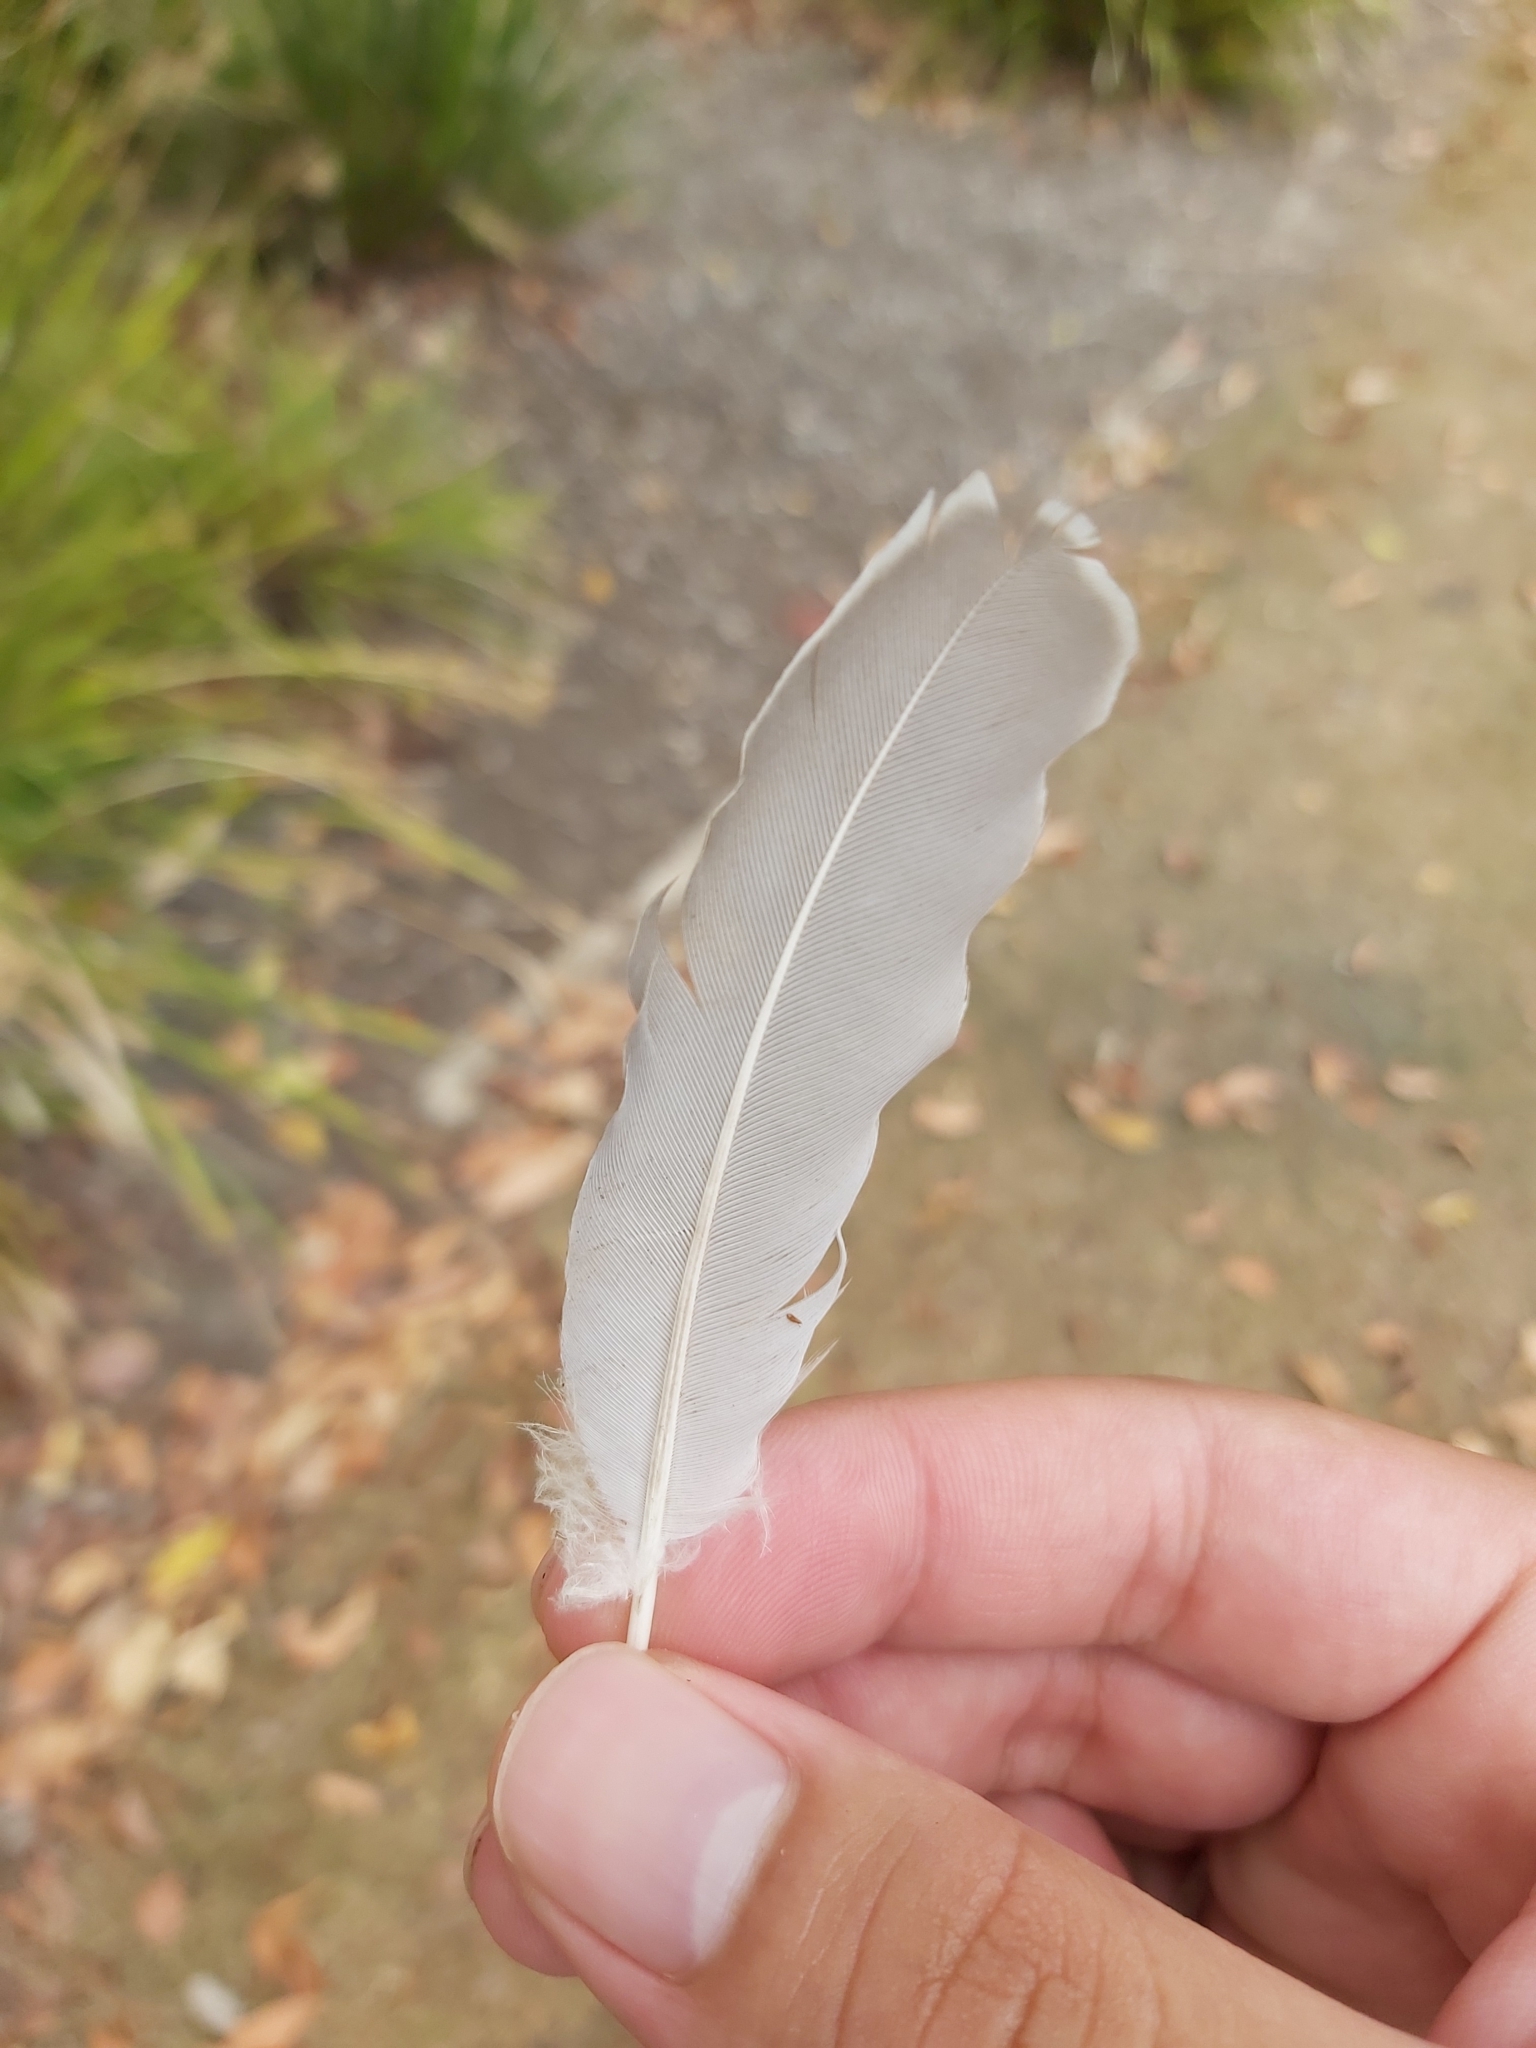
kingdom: Animalia
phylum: Chordata
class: Aves
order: Columbiformes
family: Columbidae
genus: Ocyphaps
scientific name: Ocyphaps lophotes
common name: Crested pigeon
